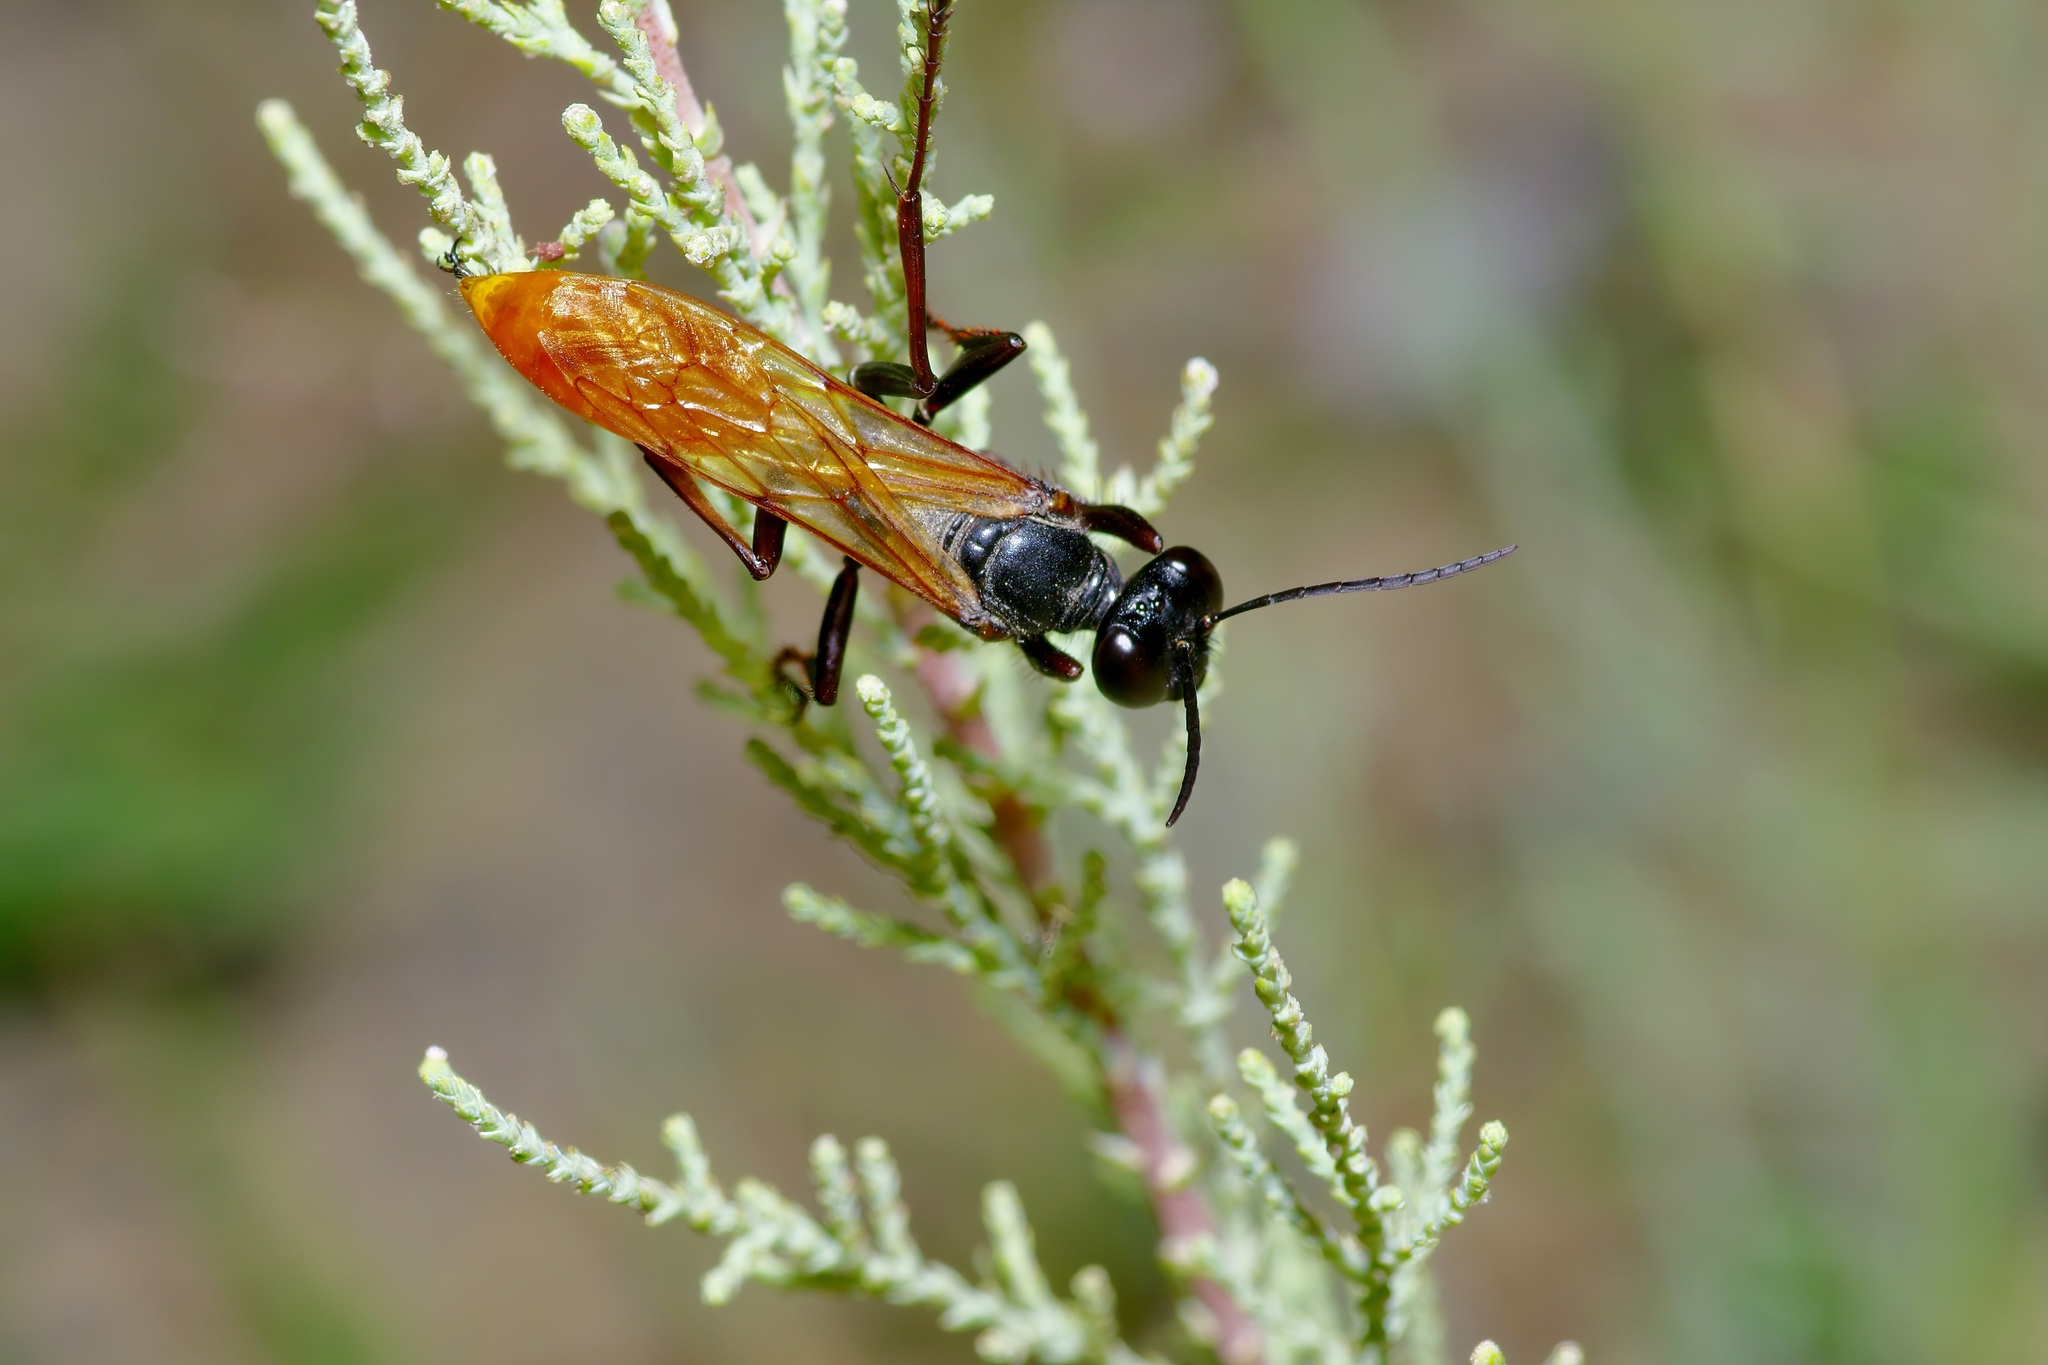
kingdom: Animalia
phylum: Arthropoda
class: Insecta
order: Hymenoptera
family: Sphecidae
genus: Sphex
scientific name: Sphex ashmeadi
